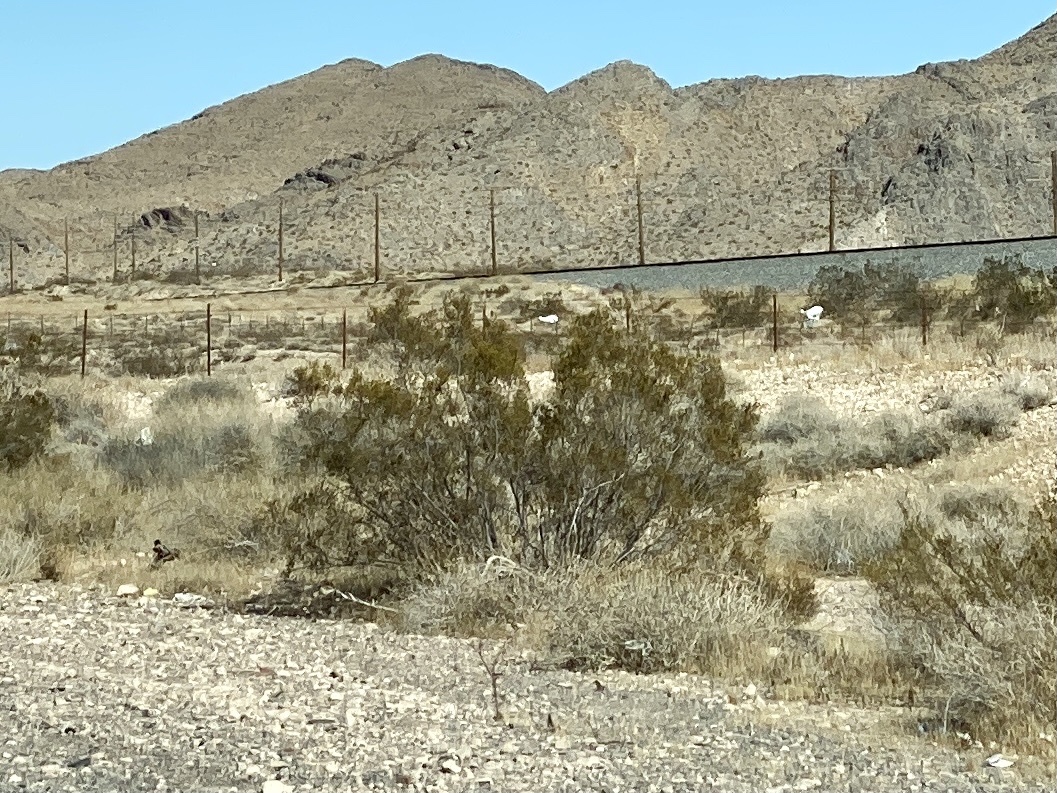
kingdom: Plantae
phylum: Tracheophyta
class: Magnoliopsida
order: Zygophyllales
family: Zygophyllaceae
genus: Larrea
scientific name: Larrea tridentata
